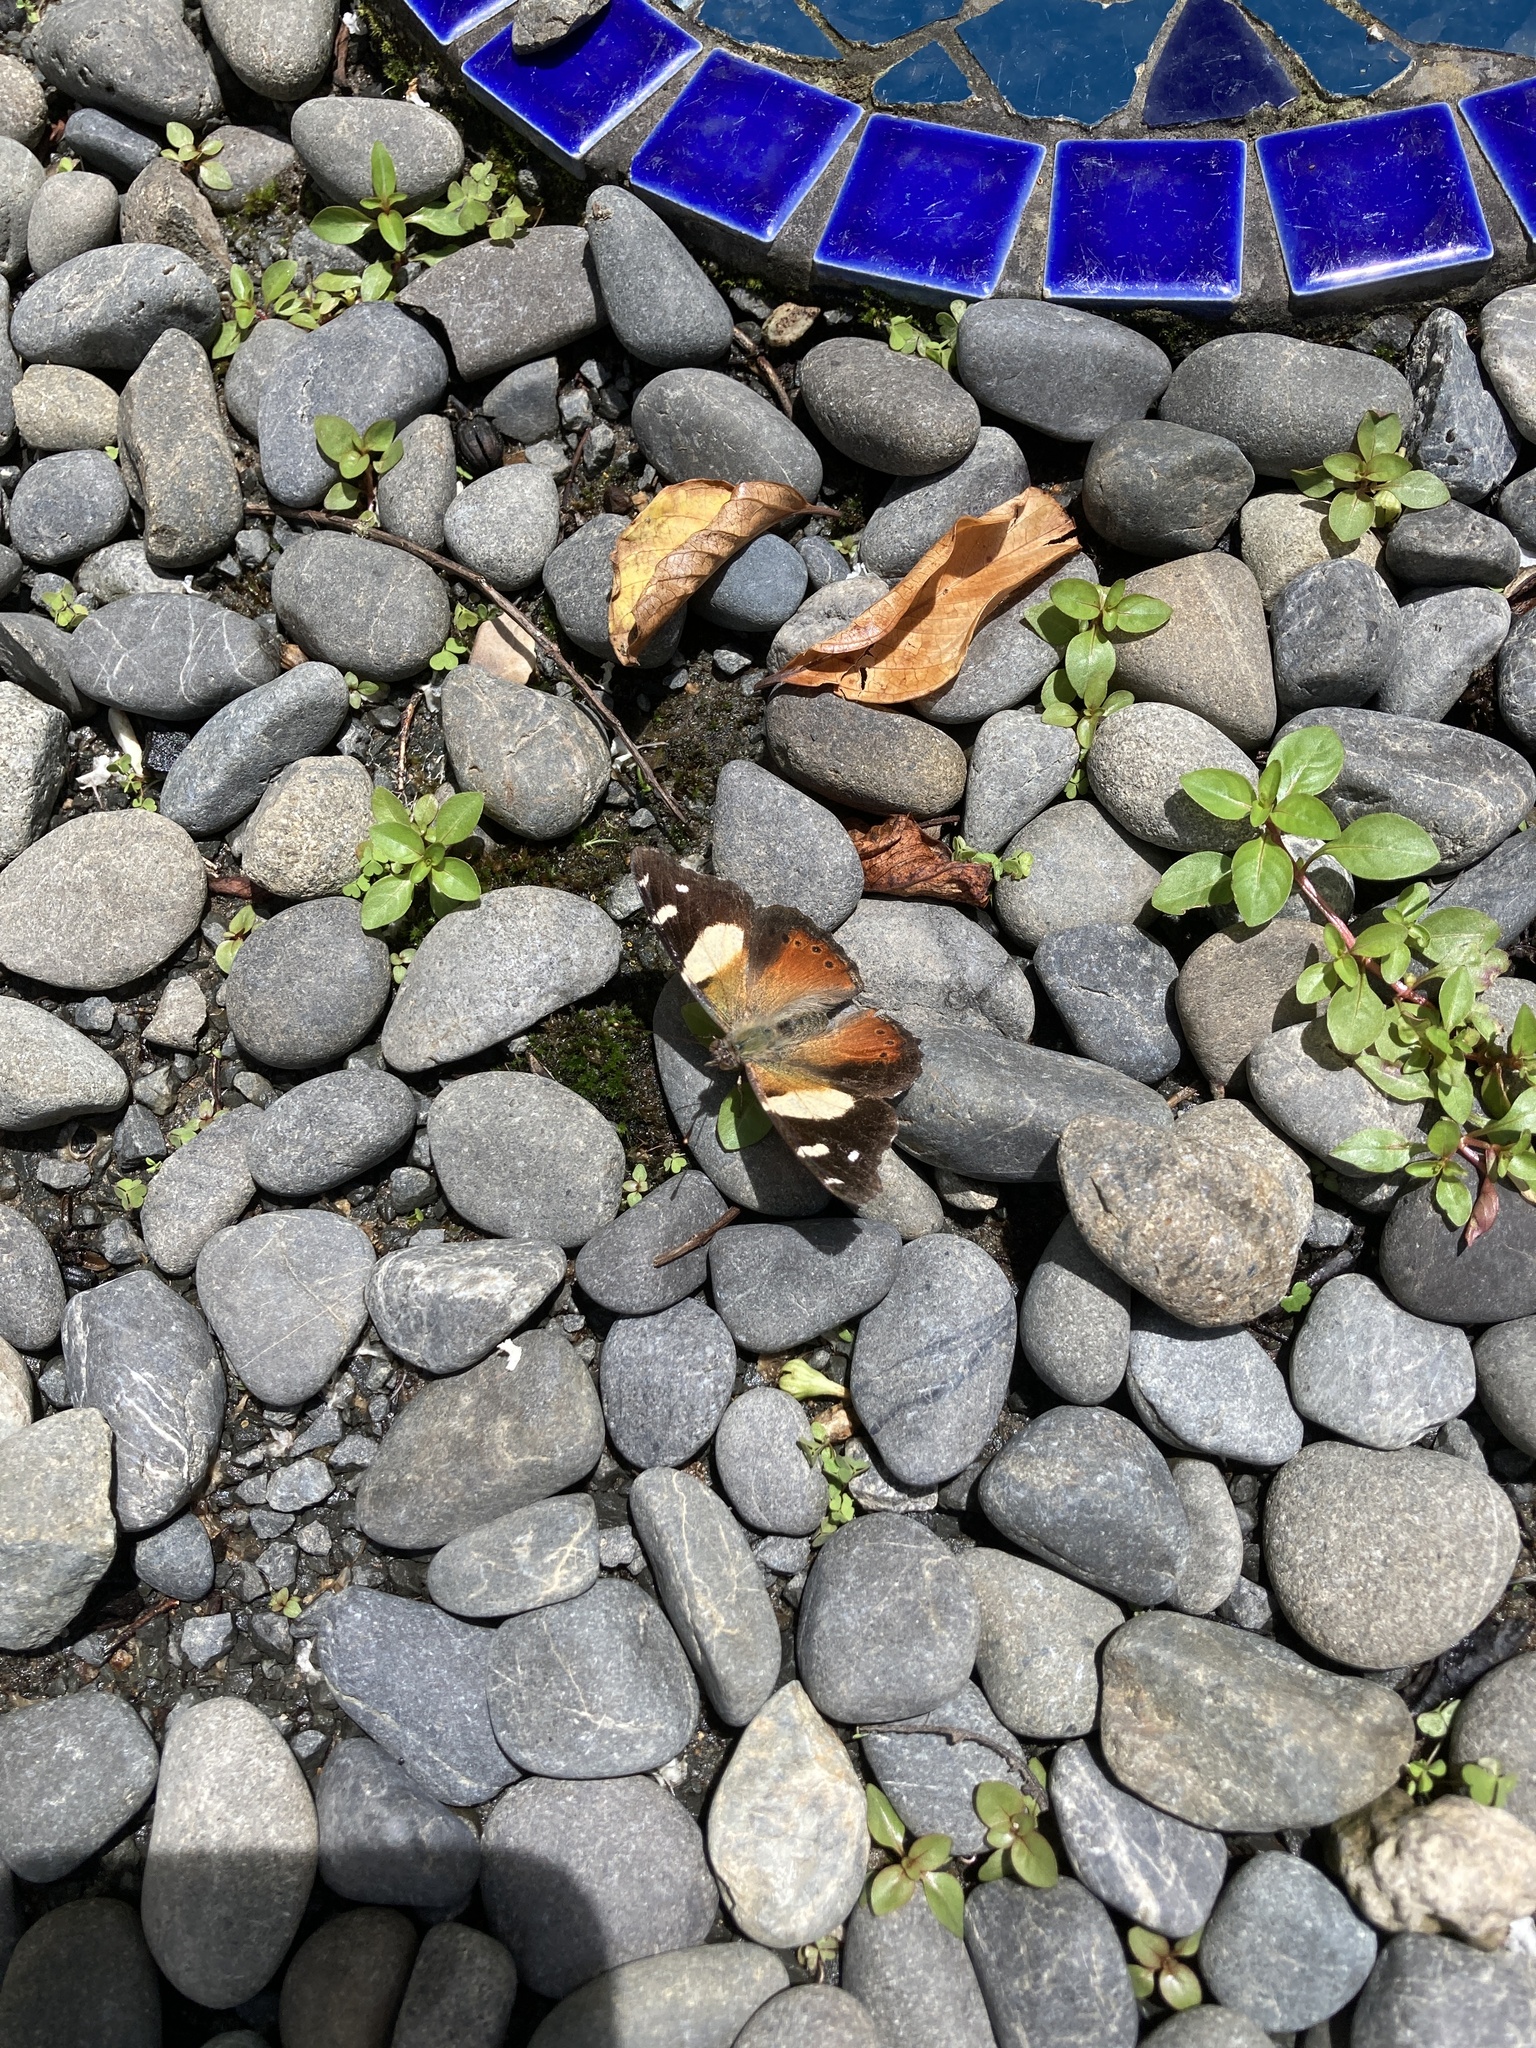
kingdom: Animalia
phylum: Arthropoda
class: Insecta
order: Lepidoptera
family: Nymphalidae
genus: Vanessa
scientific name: Vanessa itea
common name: Yellow admiral
